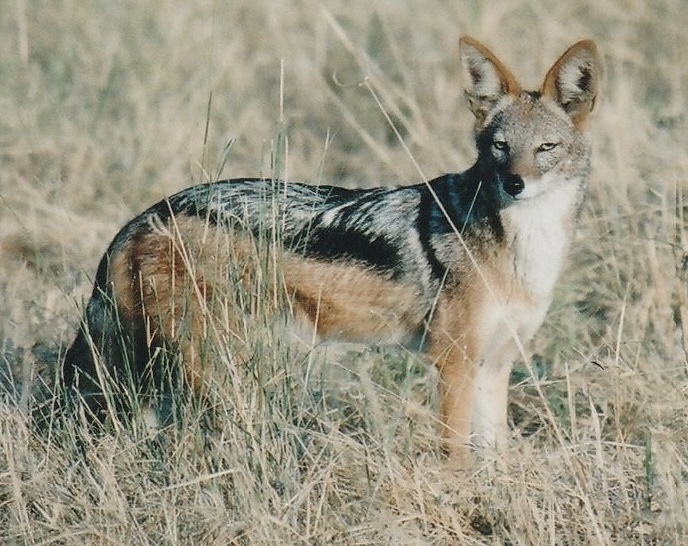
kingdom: Animalia
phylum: Chordata
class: Mammalia
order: Carnivora
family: Canidae
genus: Lupulella
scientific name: Lupulella
